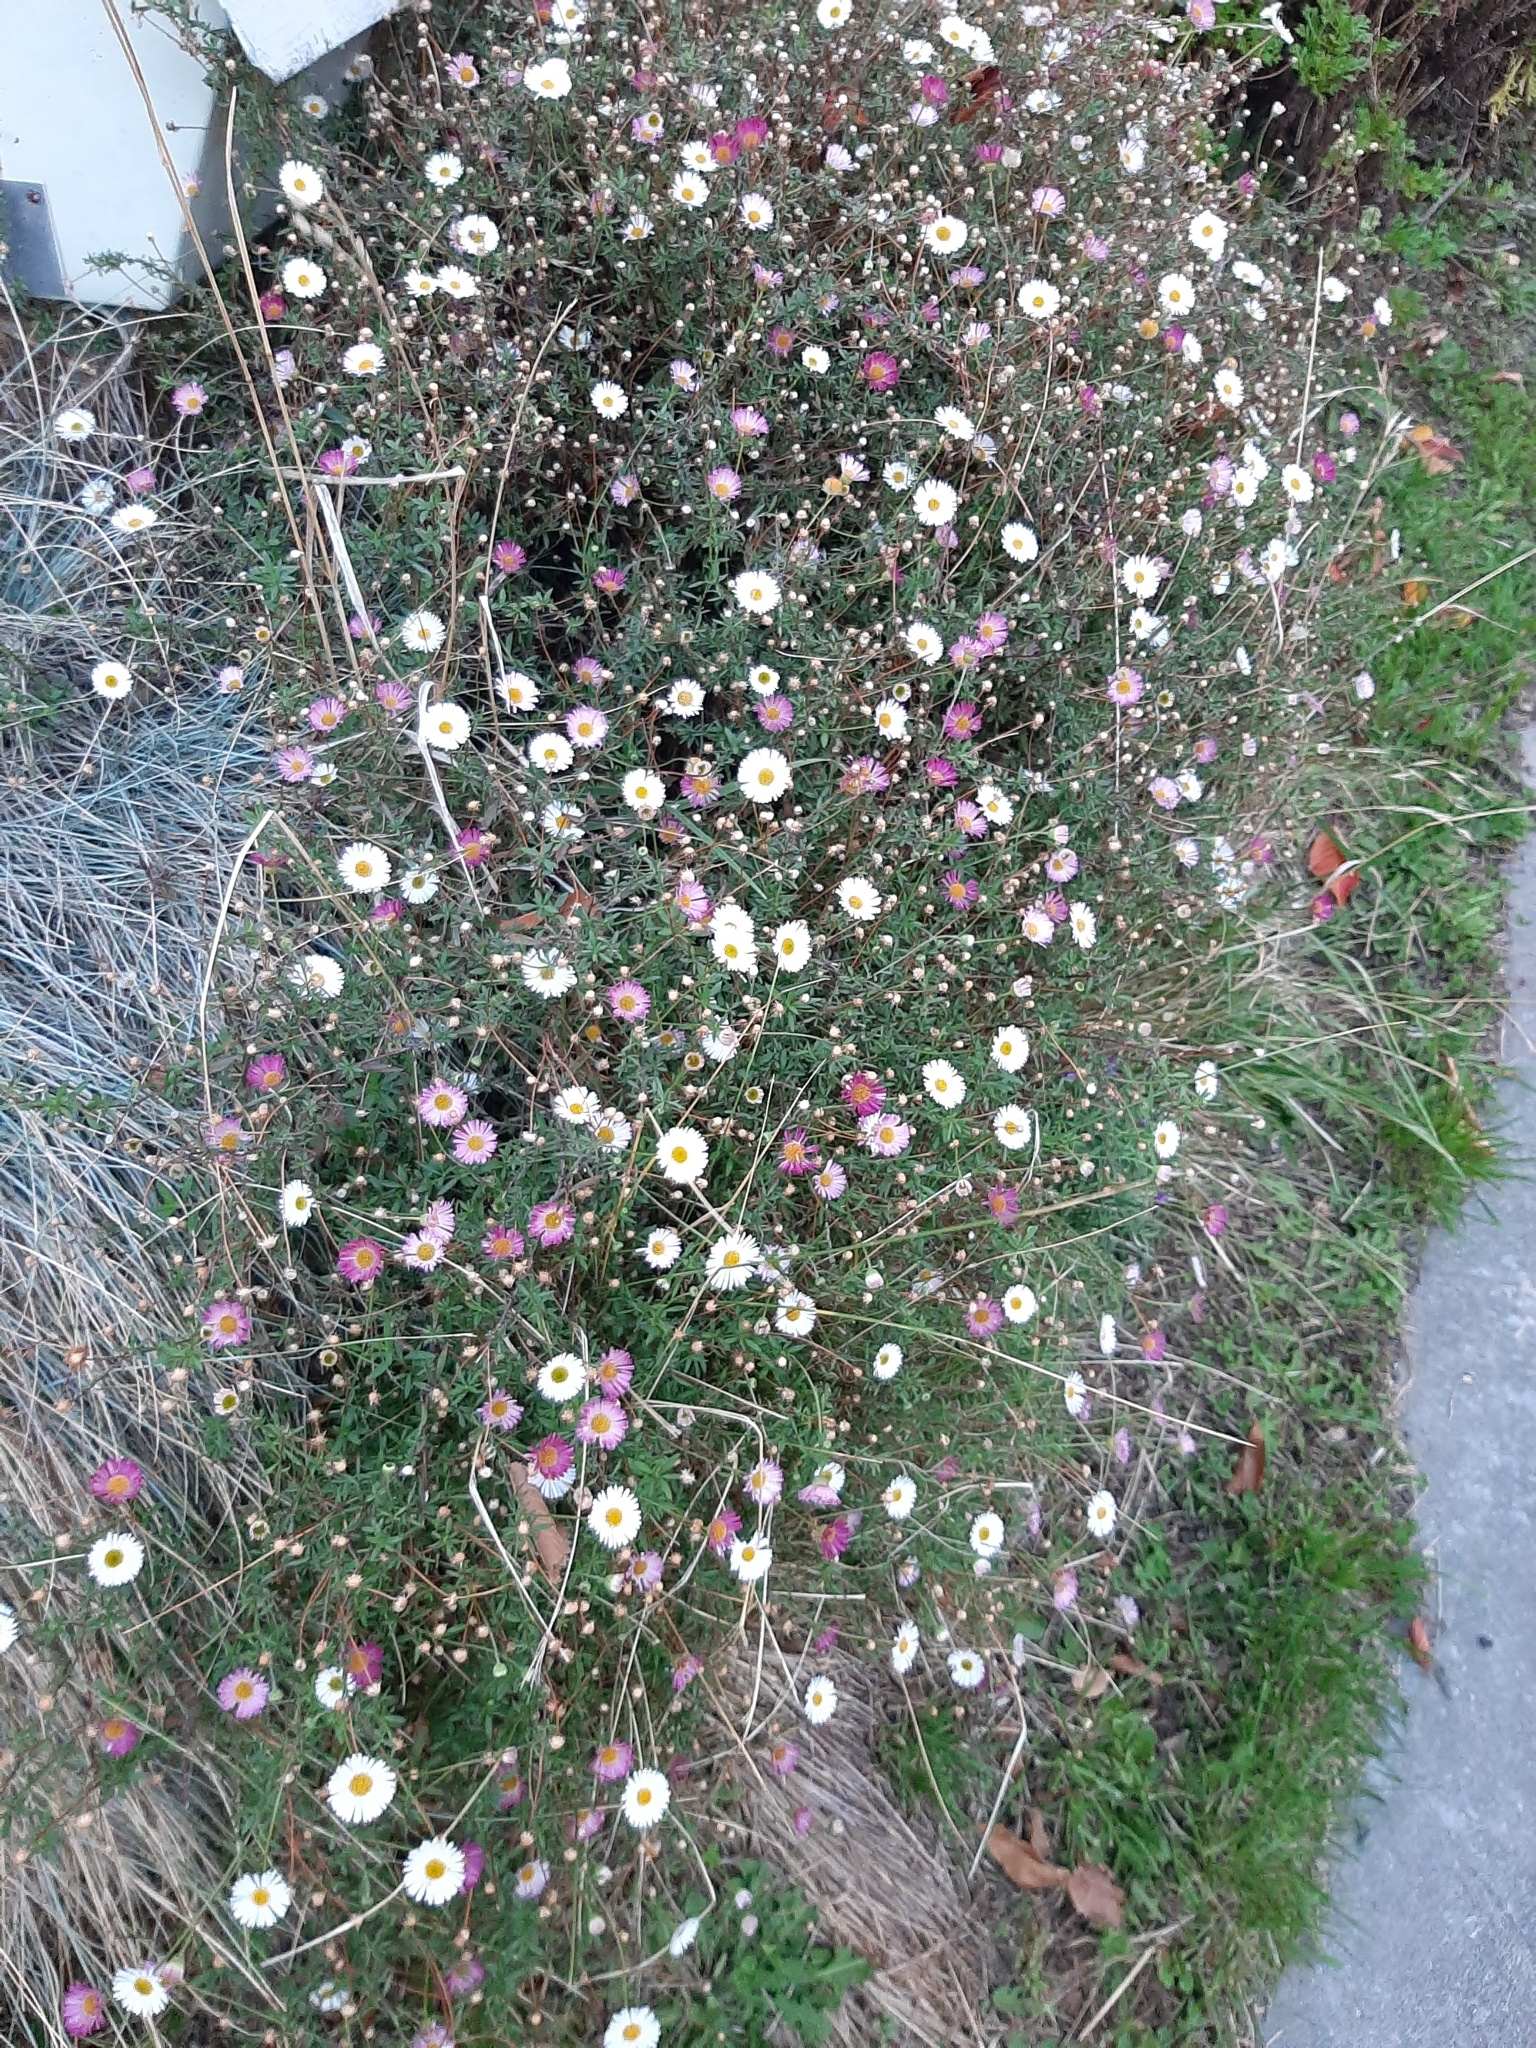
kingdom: Plantae
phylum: Tracheophyta
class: Magnoliopsida
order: Asterales
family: Asteraceae
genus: Erigeron
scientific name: Erigeron karvinskianus
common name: Mexican fleabane
